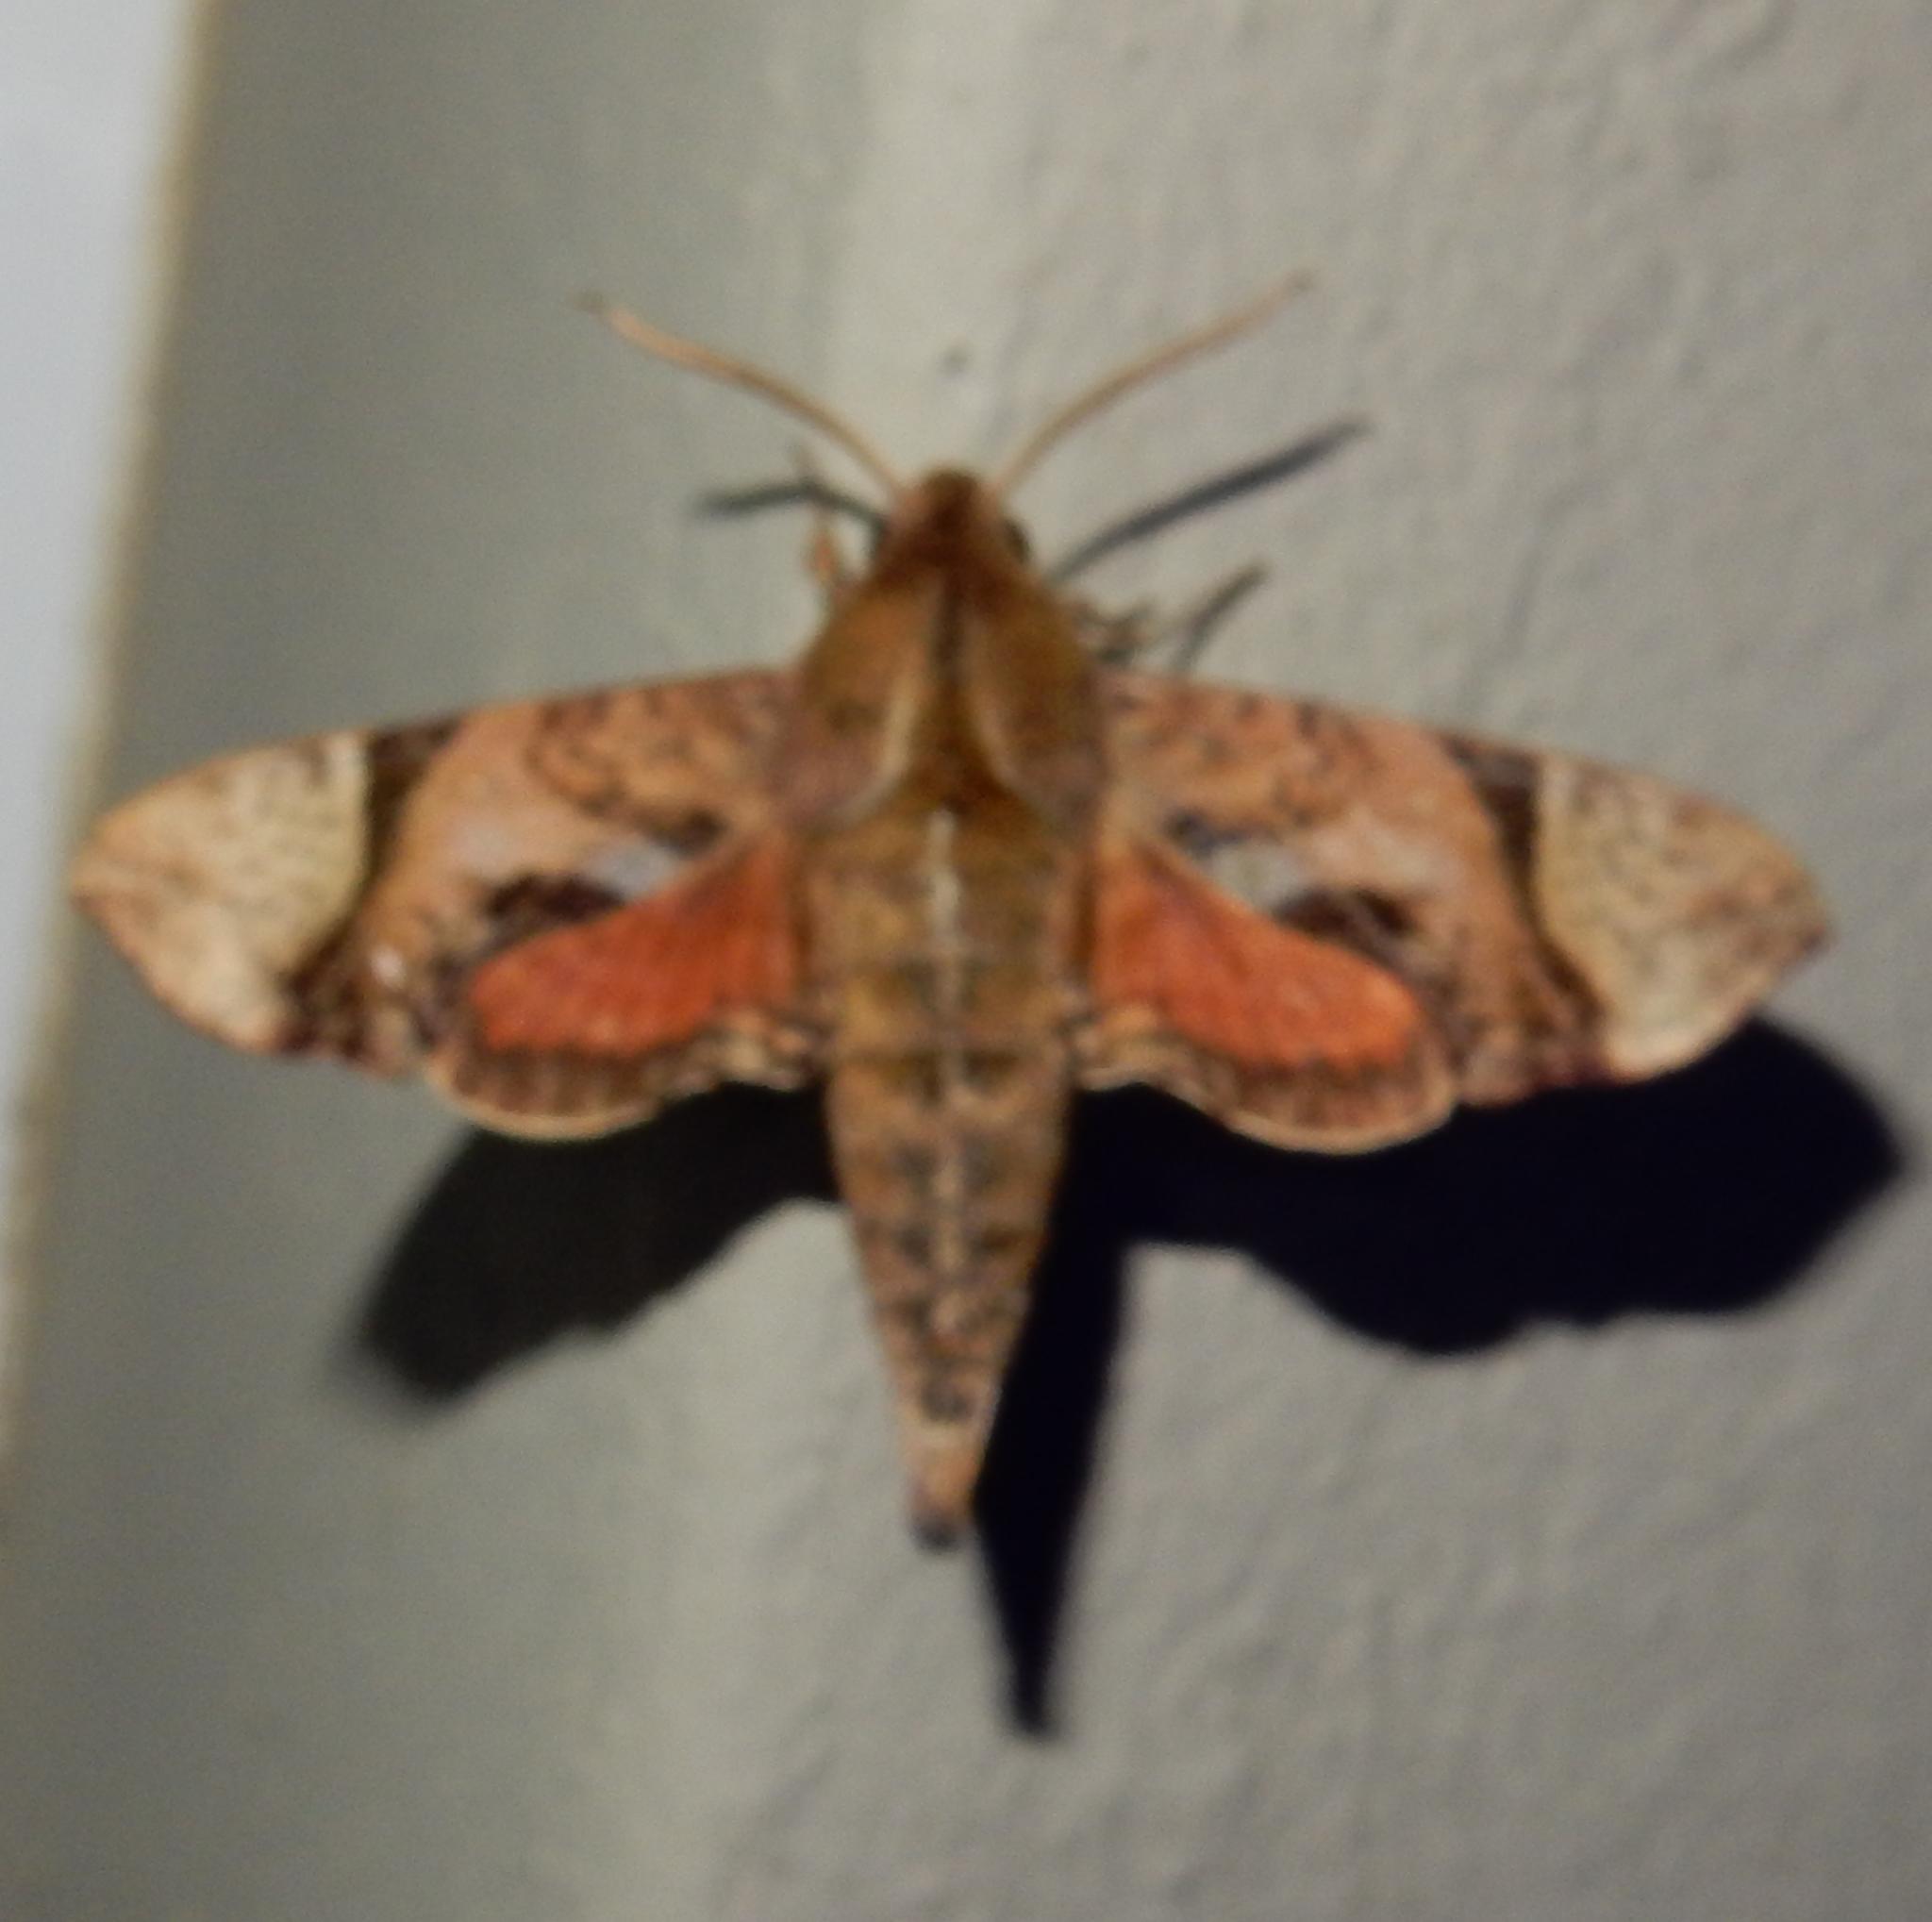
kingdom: Animalia
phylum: Arthropoda
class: Insecta
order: Lepidoptera
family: Sphingidae
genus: Temnora
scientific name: Temnora inornatum
